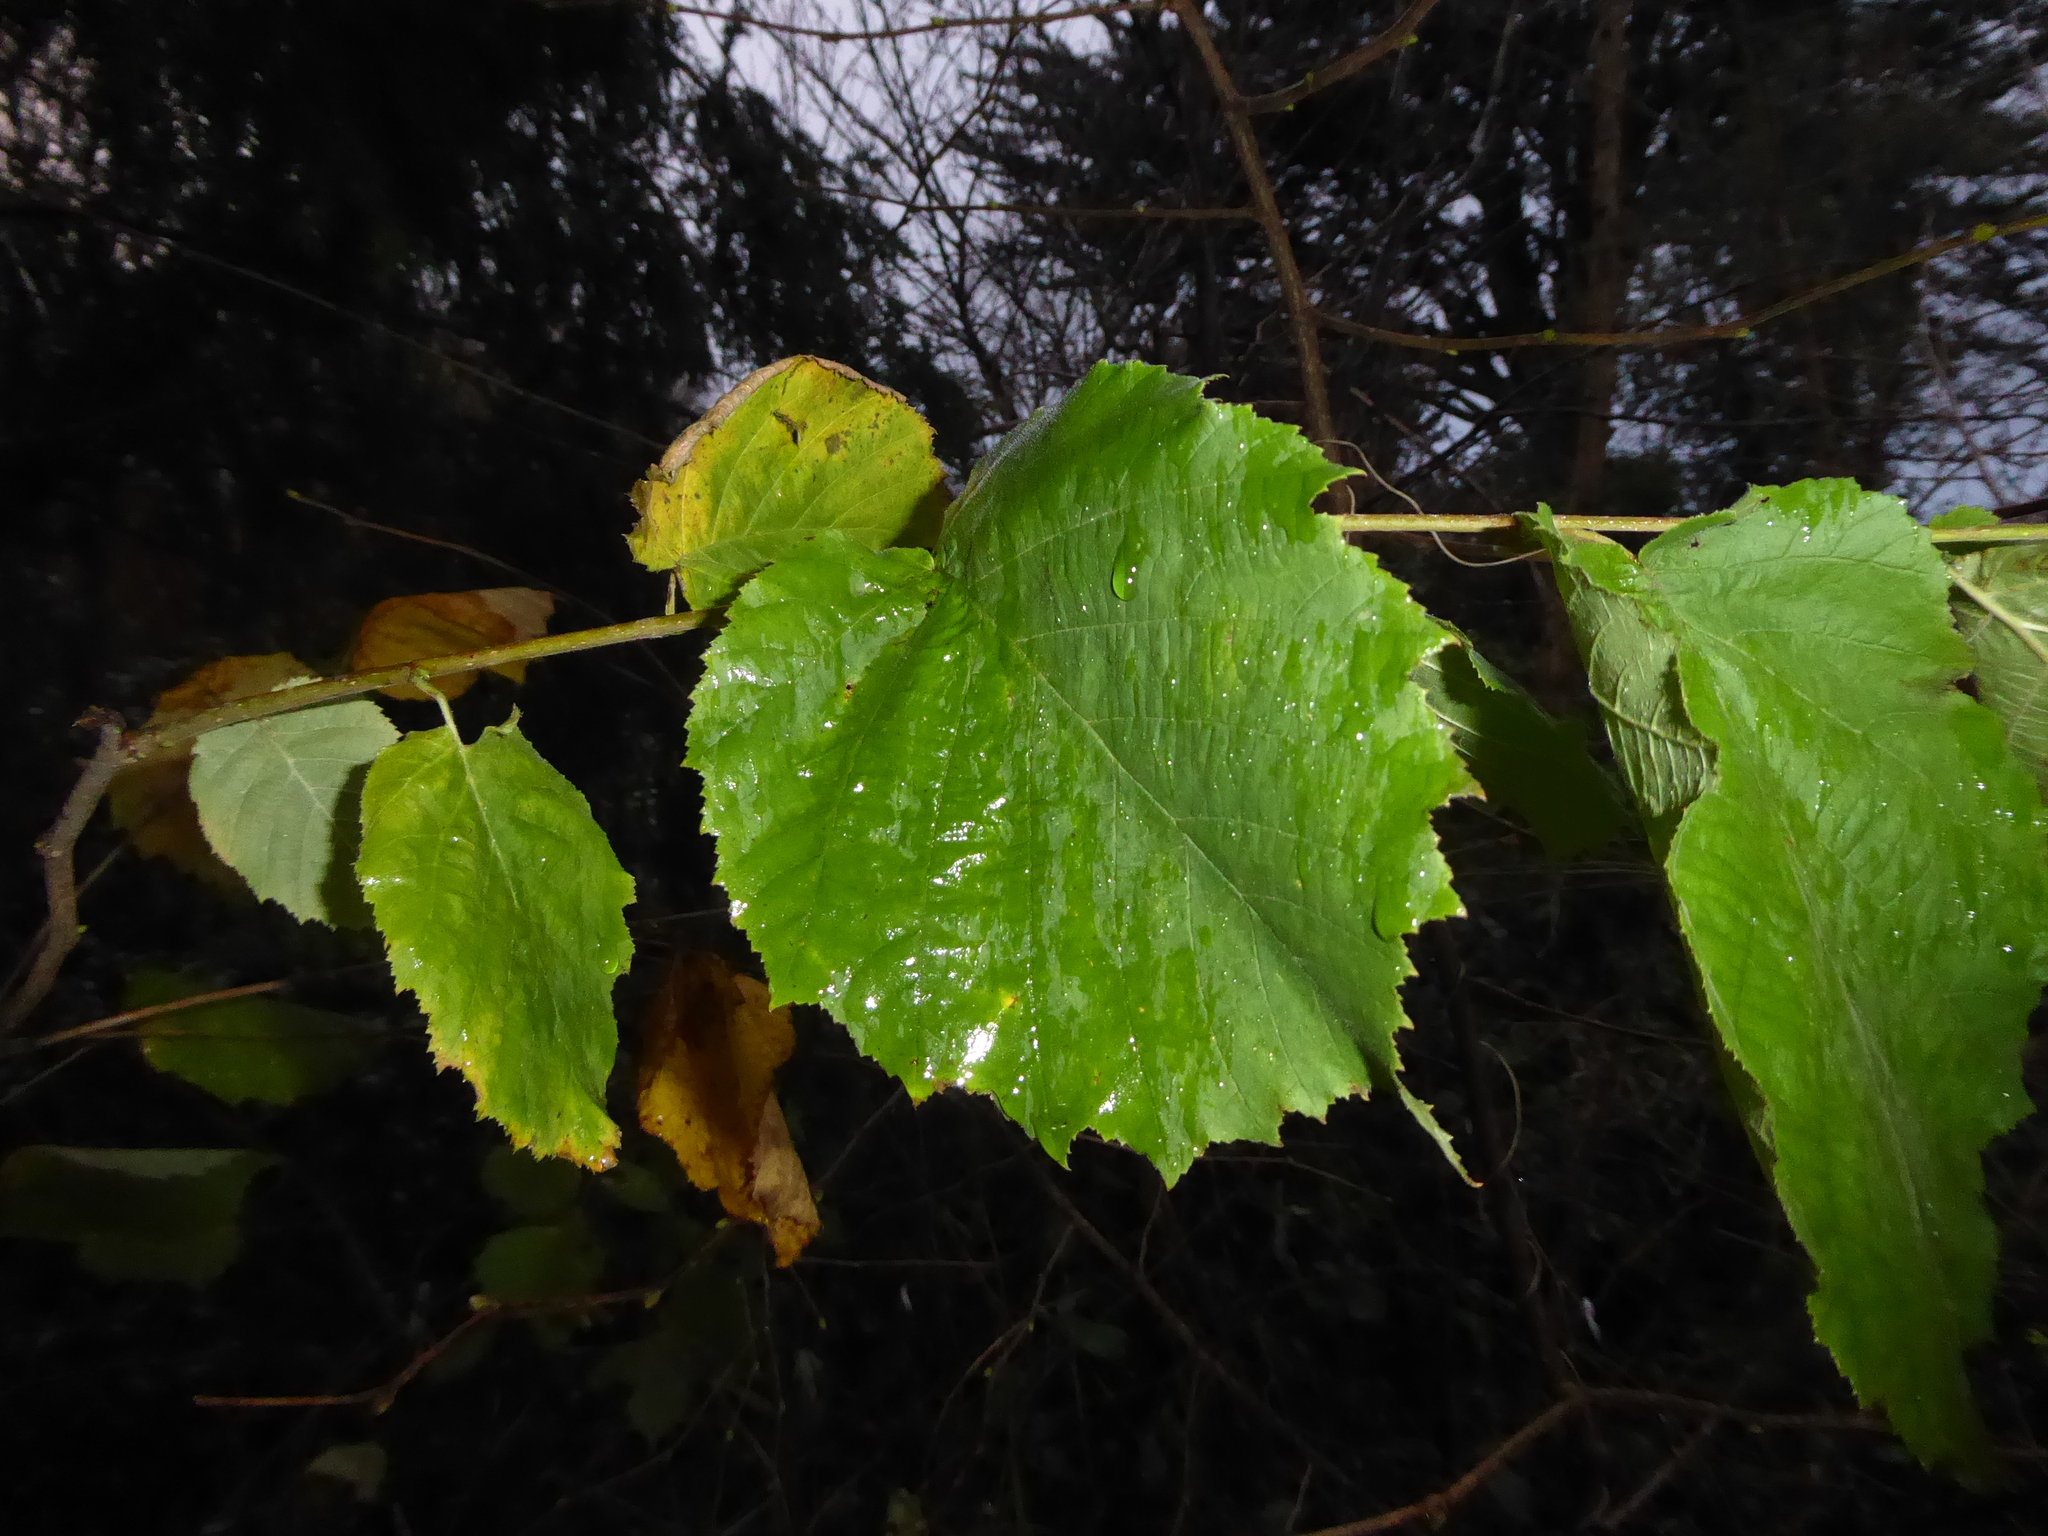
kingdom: Plantae
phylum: Tracheophyta
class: Magnoliopsida
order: Fagales
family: Betulaceae
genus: Corylus
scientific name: Corylus avellana
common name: European hazel
